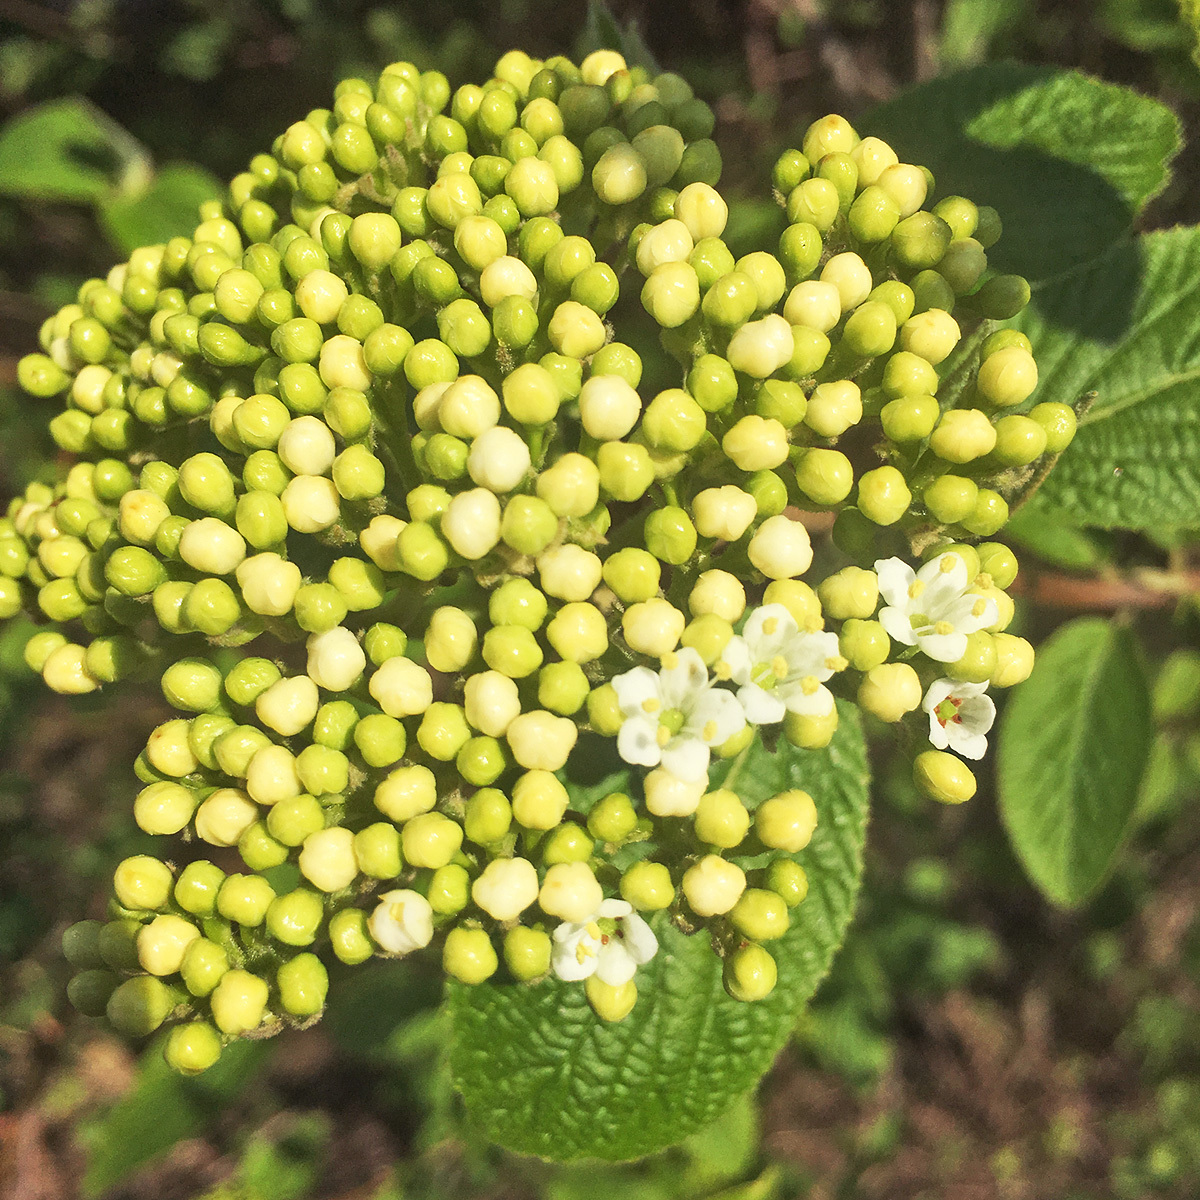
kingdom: Plantae
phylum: Tracheophyta
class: Magnoliopsida
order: Dipsacales
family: Viburnaceae
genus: Viburnum
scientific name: Viburnum lantana
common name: Wayfaring tree
